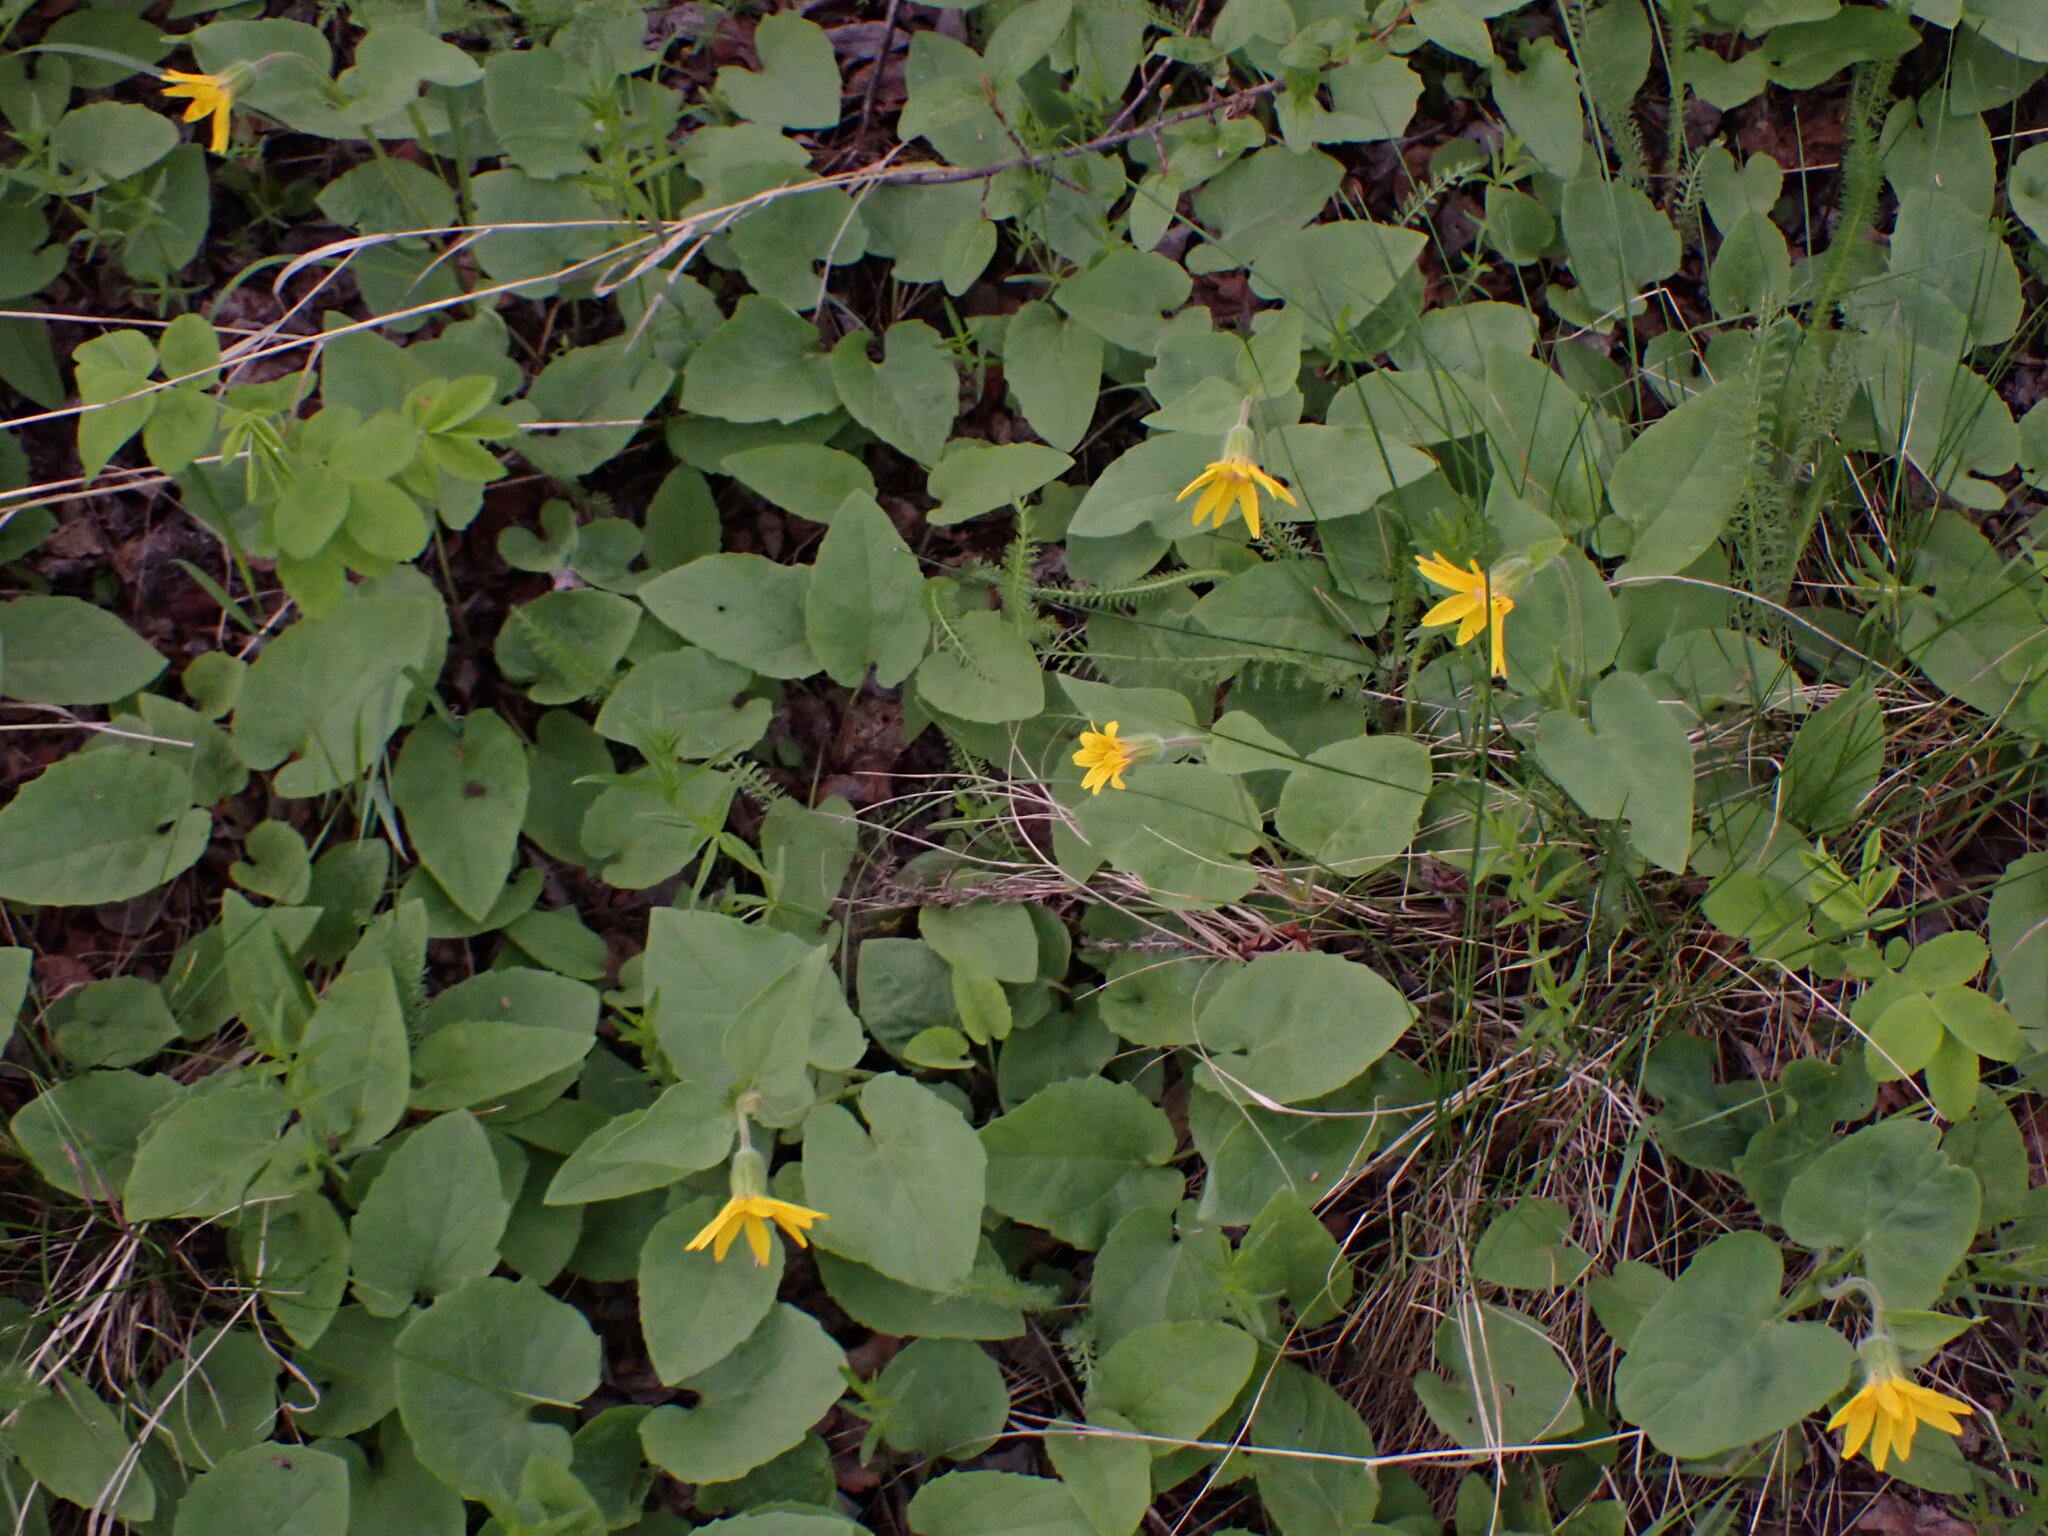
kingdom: Plantae
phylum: Tracheophyta
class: Magnoliopsida
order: Asterales
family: Asteraceae
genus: Arnica
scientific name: Arnica cordifolia
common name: Heart-leaf arnica
